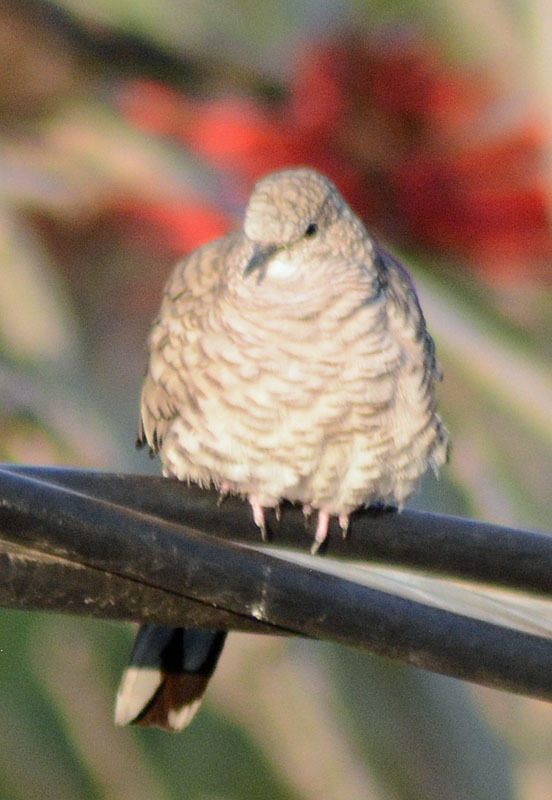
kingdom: Animalia
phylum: Chordata
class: Aves
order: Columbiformes
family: Columbidae
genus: Columbina
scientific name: Columbina inca
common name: Inca dove
